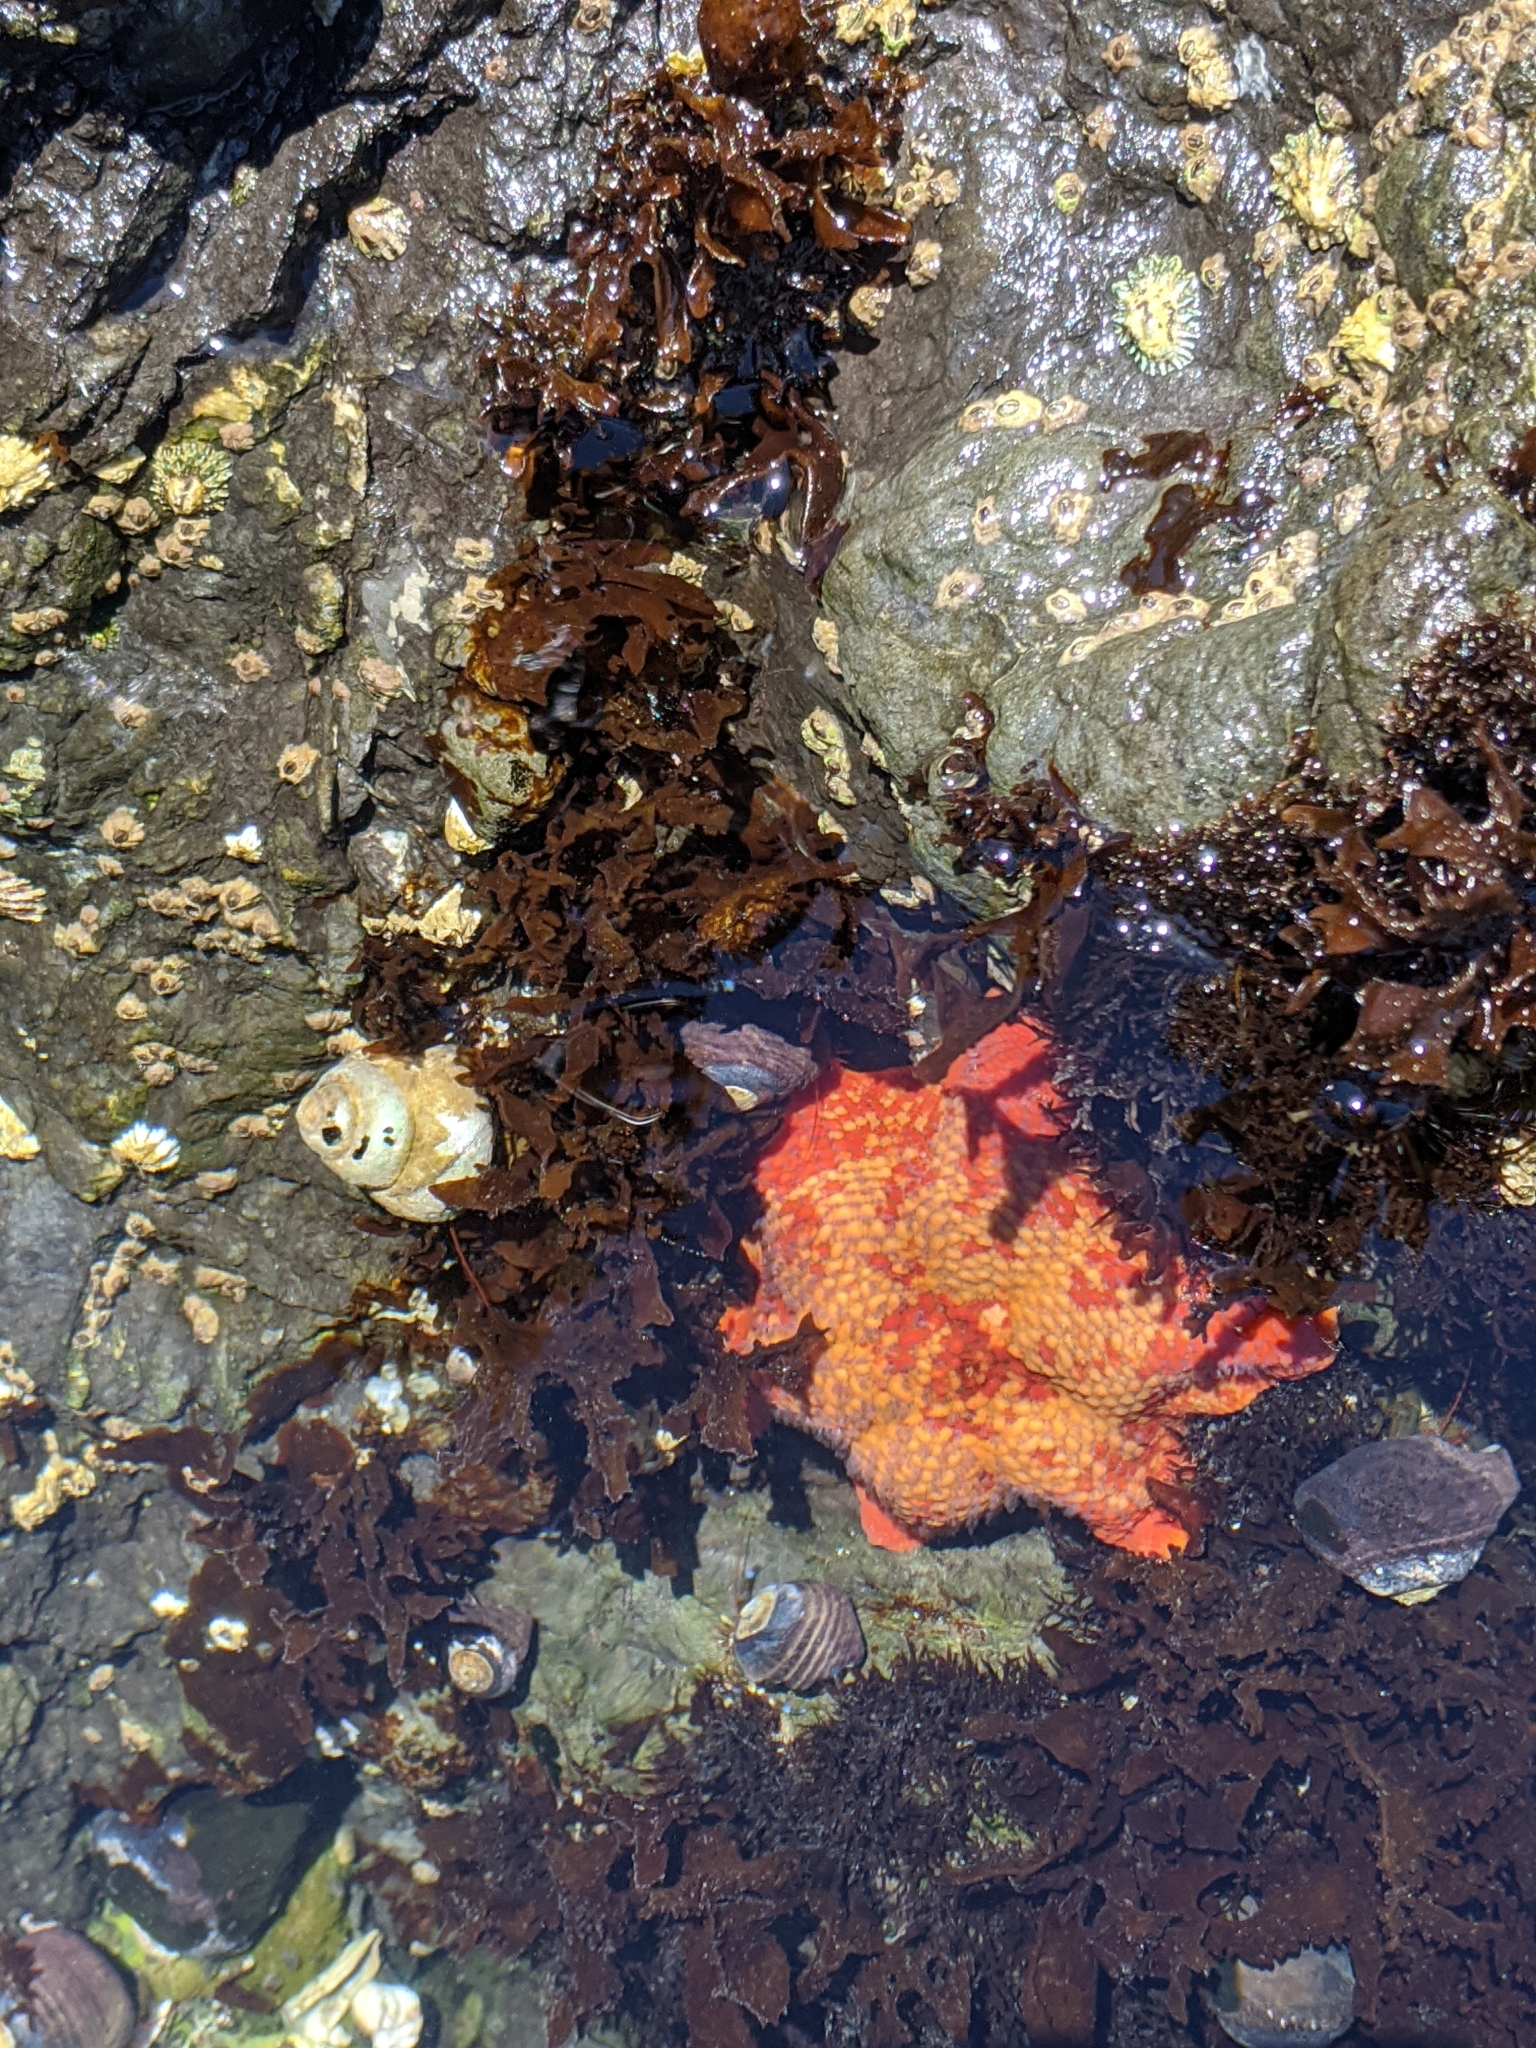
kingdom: Animalia
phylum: Echinodermata
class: Asteroidea
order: Valvatida
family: Asterinidae
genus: Patiria
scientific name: Patiria miniata
